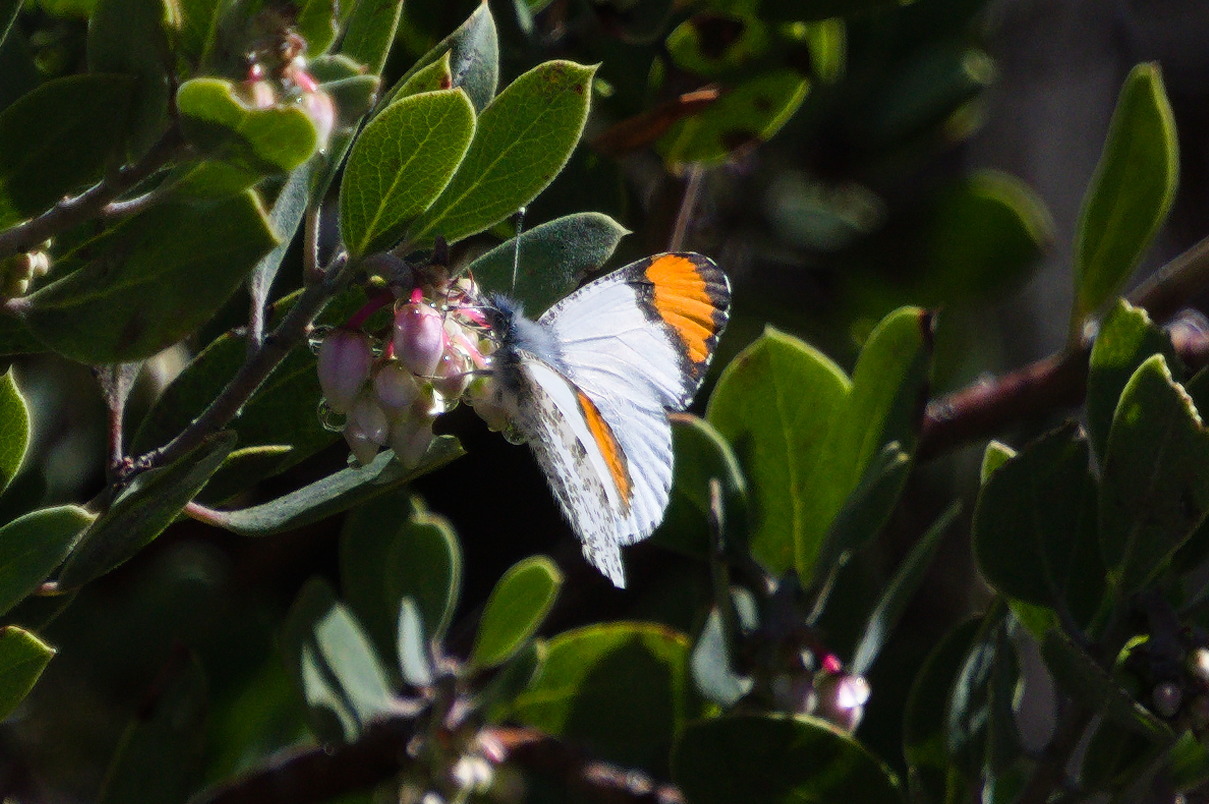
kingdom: Animalia
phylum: Arthropoda
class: Insecta
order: Lepidoptera
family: Pieridae
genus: Anthocharis
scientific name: Anthocharis thoosa
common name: Southwestern orangetip
